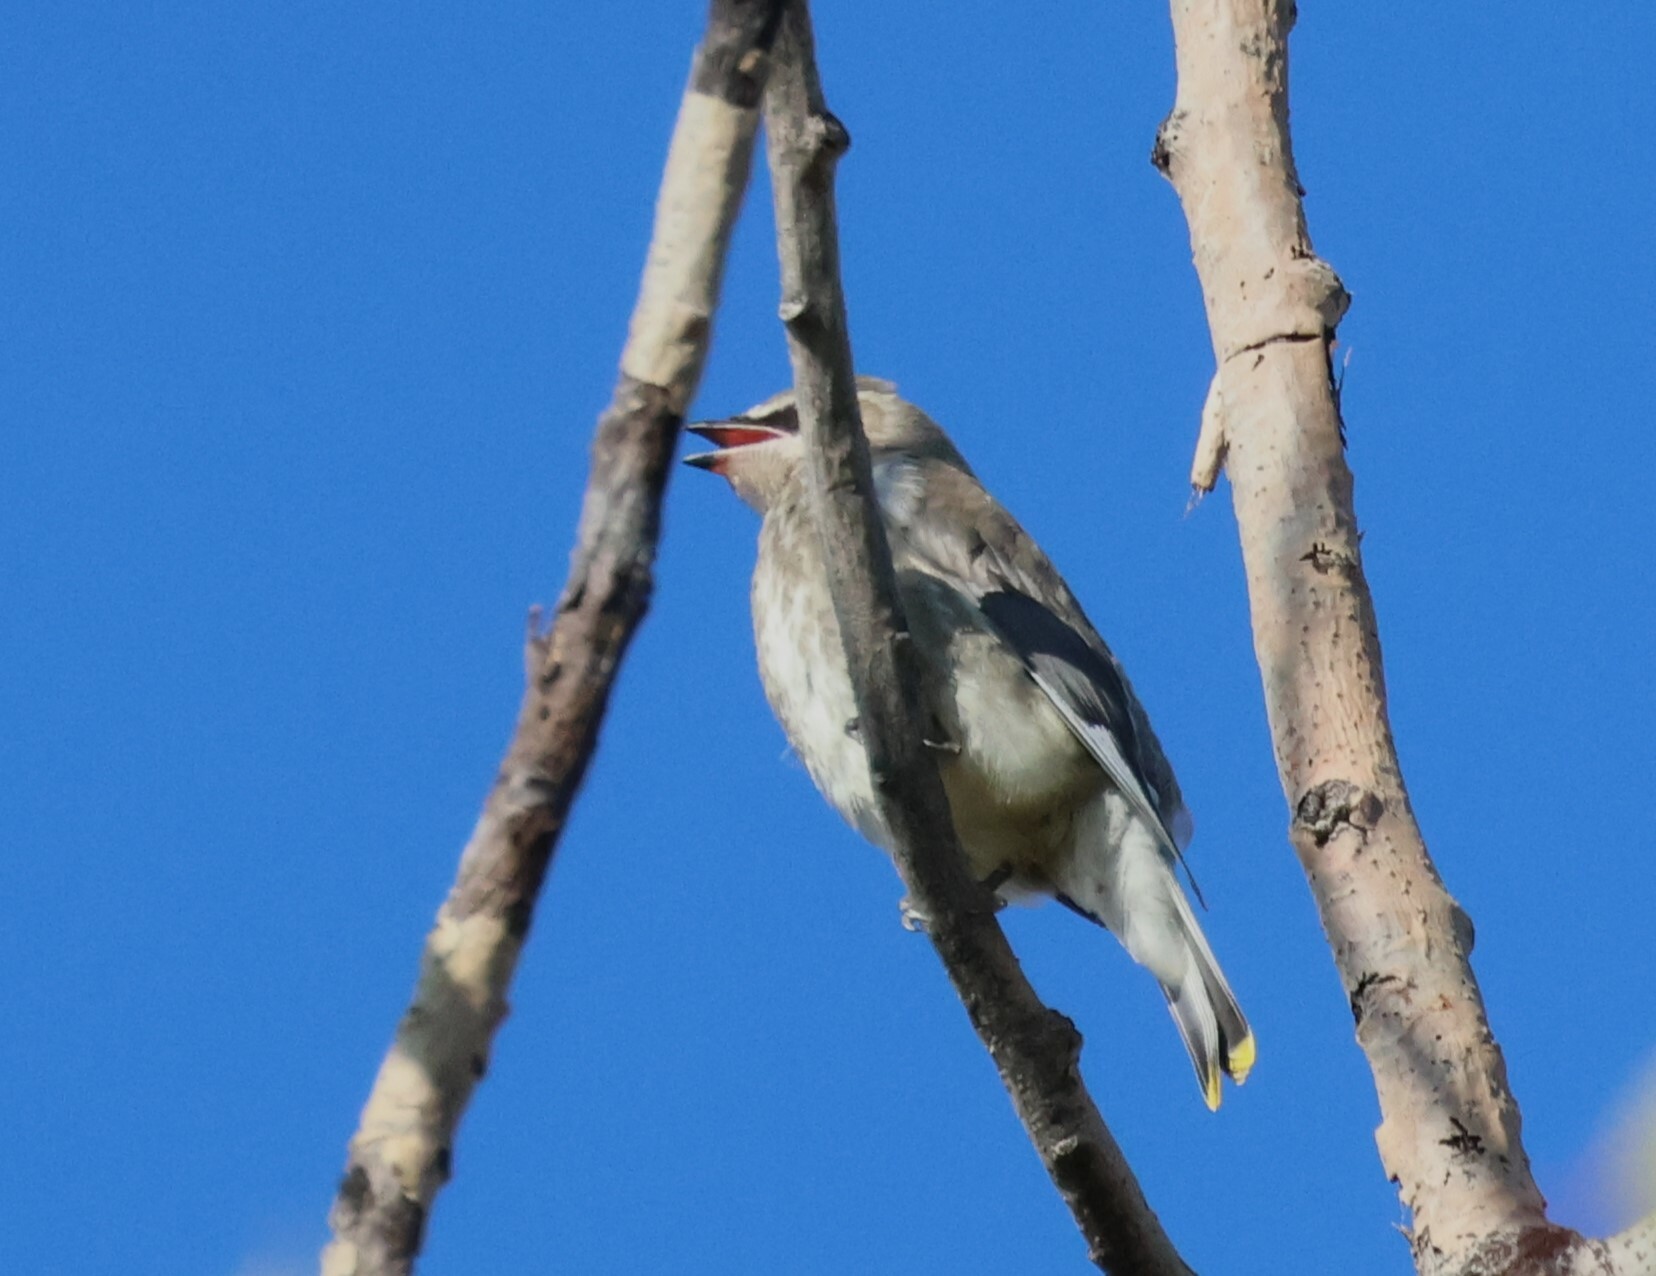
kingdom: Animalia
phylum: Chordata
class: Aves
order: Passeriformes
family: Bombycillidae
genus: Bombycilla
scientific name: Bombycilla cedrorum
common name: Cedar waxwing
